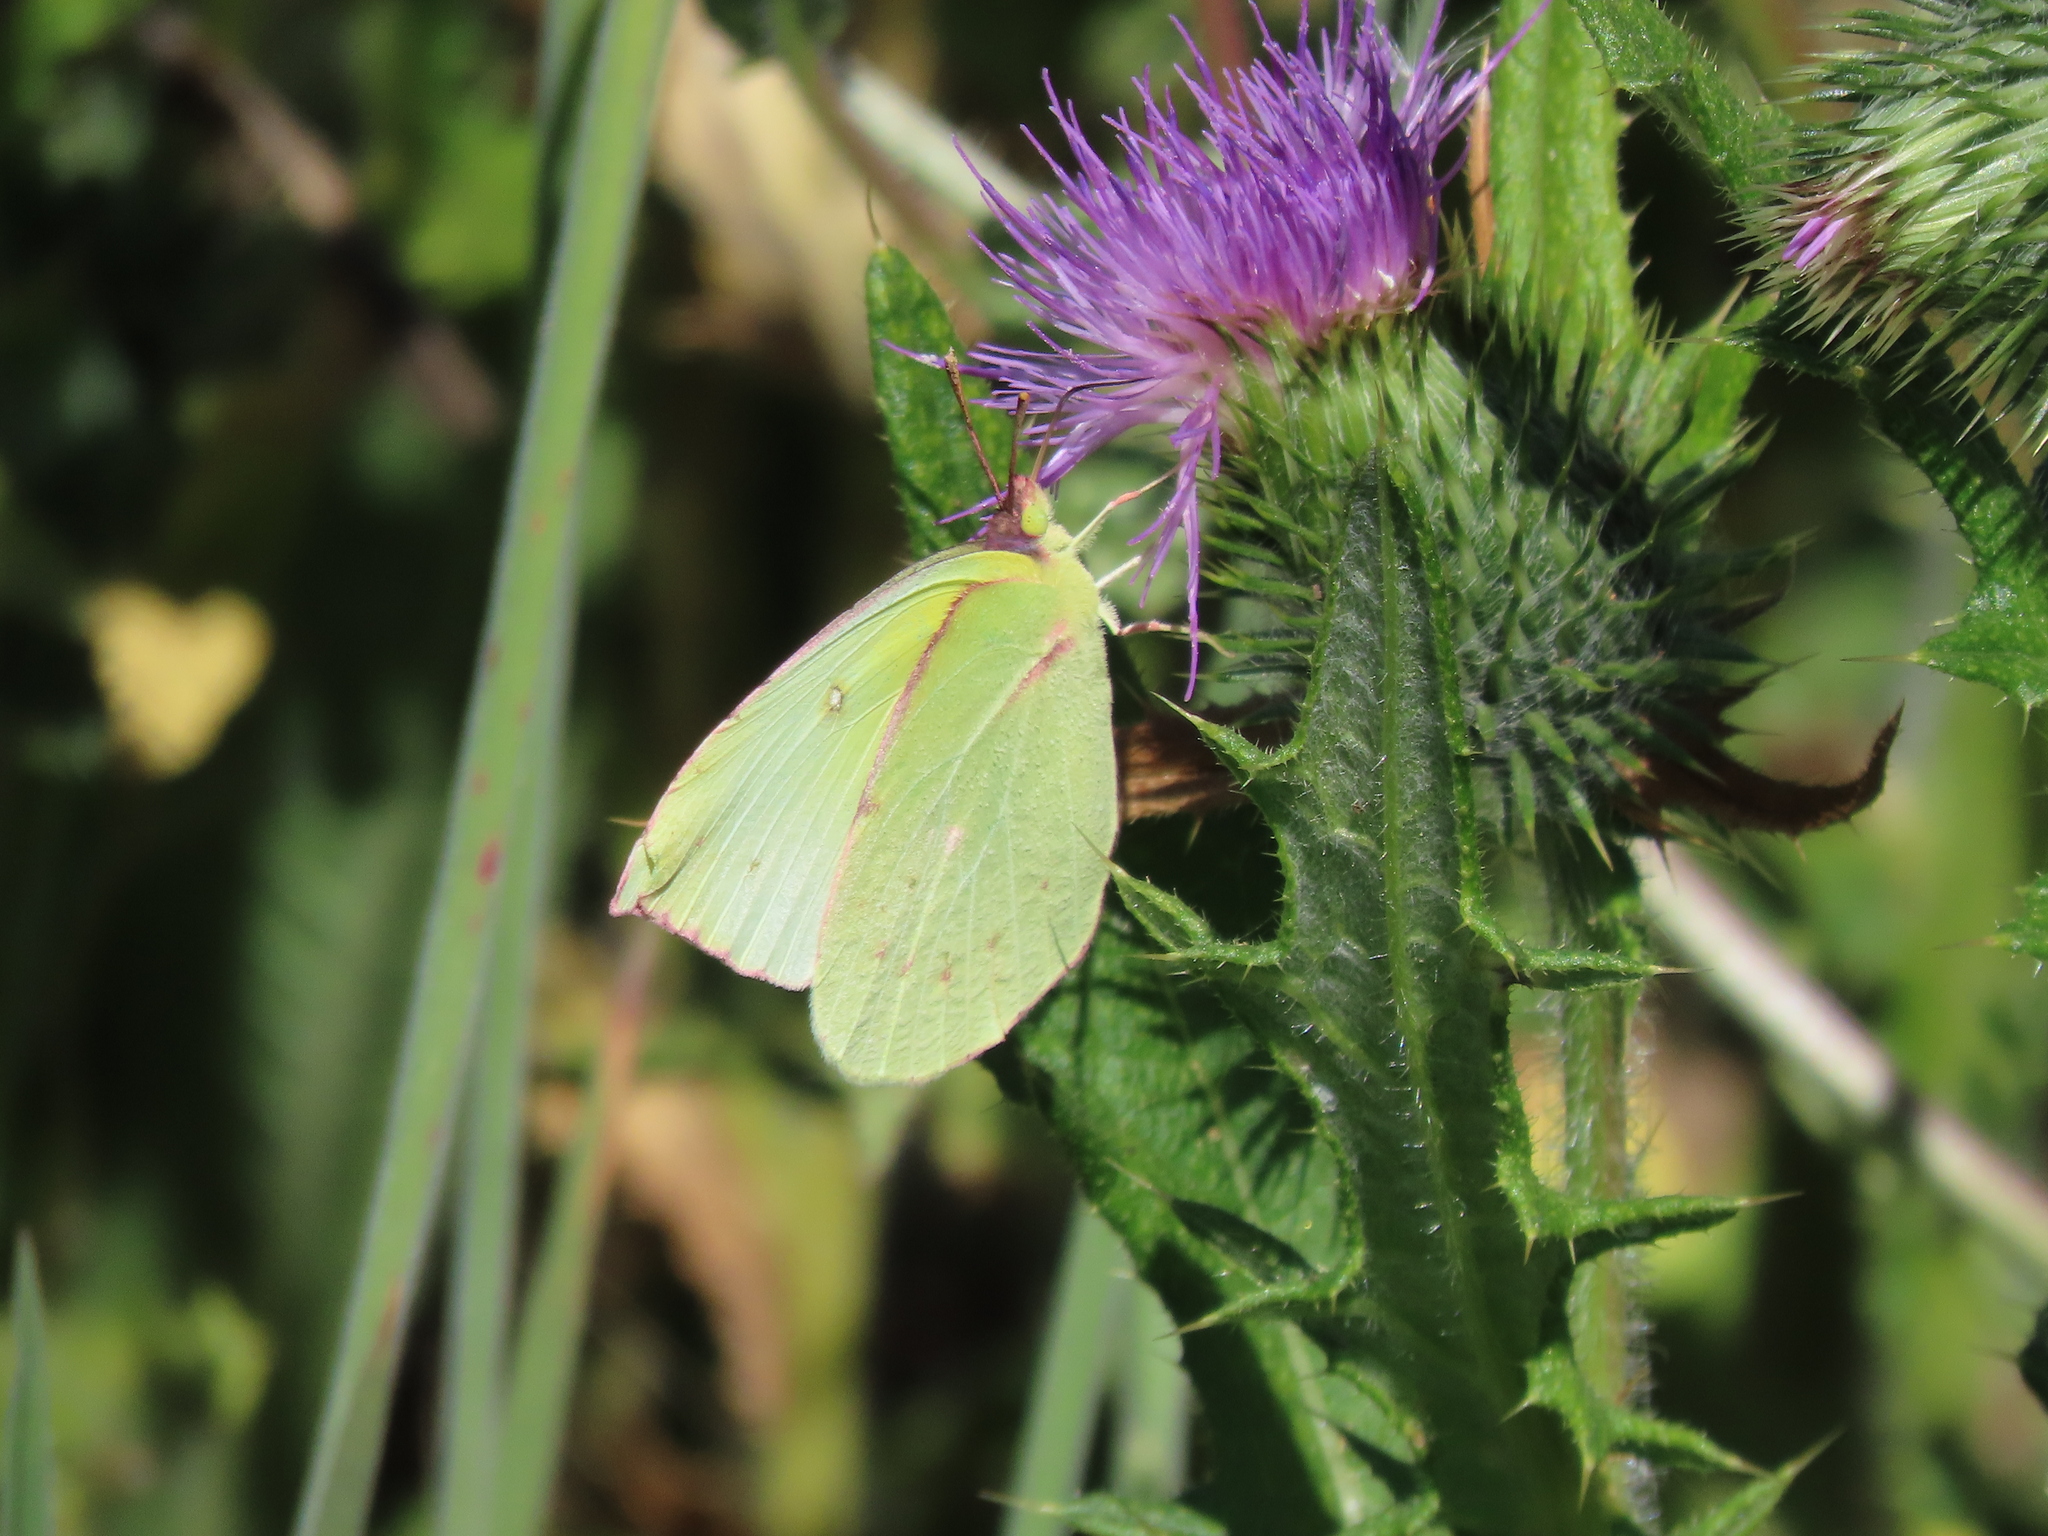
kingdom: Animalia
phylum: Arthropoda
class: Insecta
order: Lepidoptera
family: Pieridae
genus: Zerene
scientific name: Zerene eurydice
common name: California dogface
